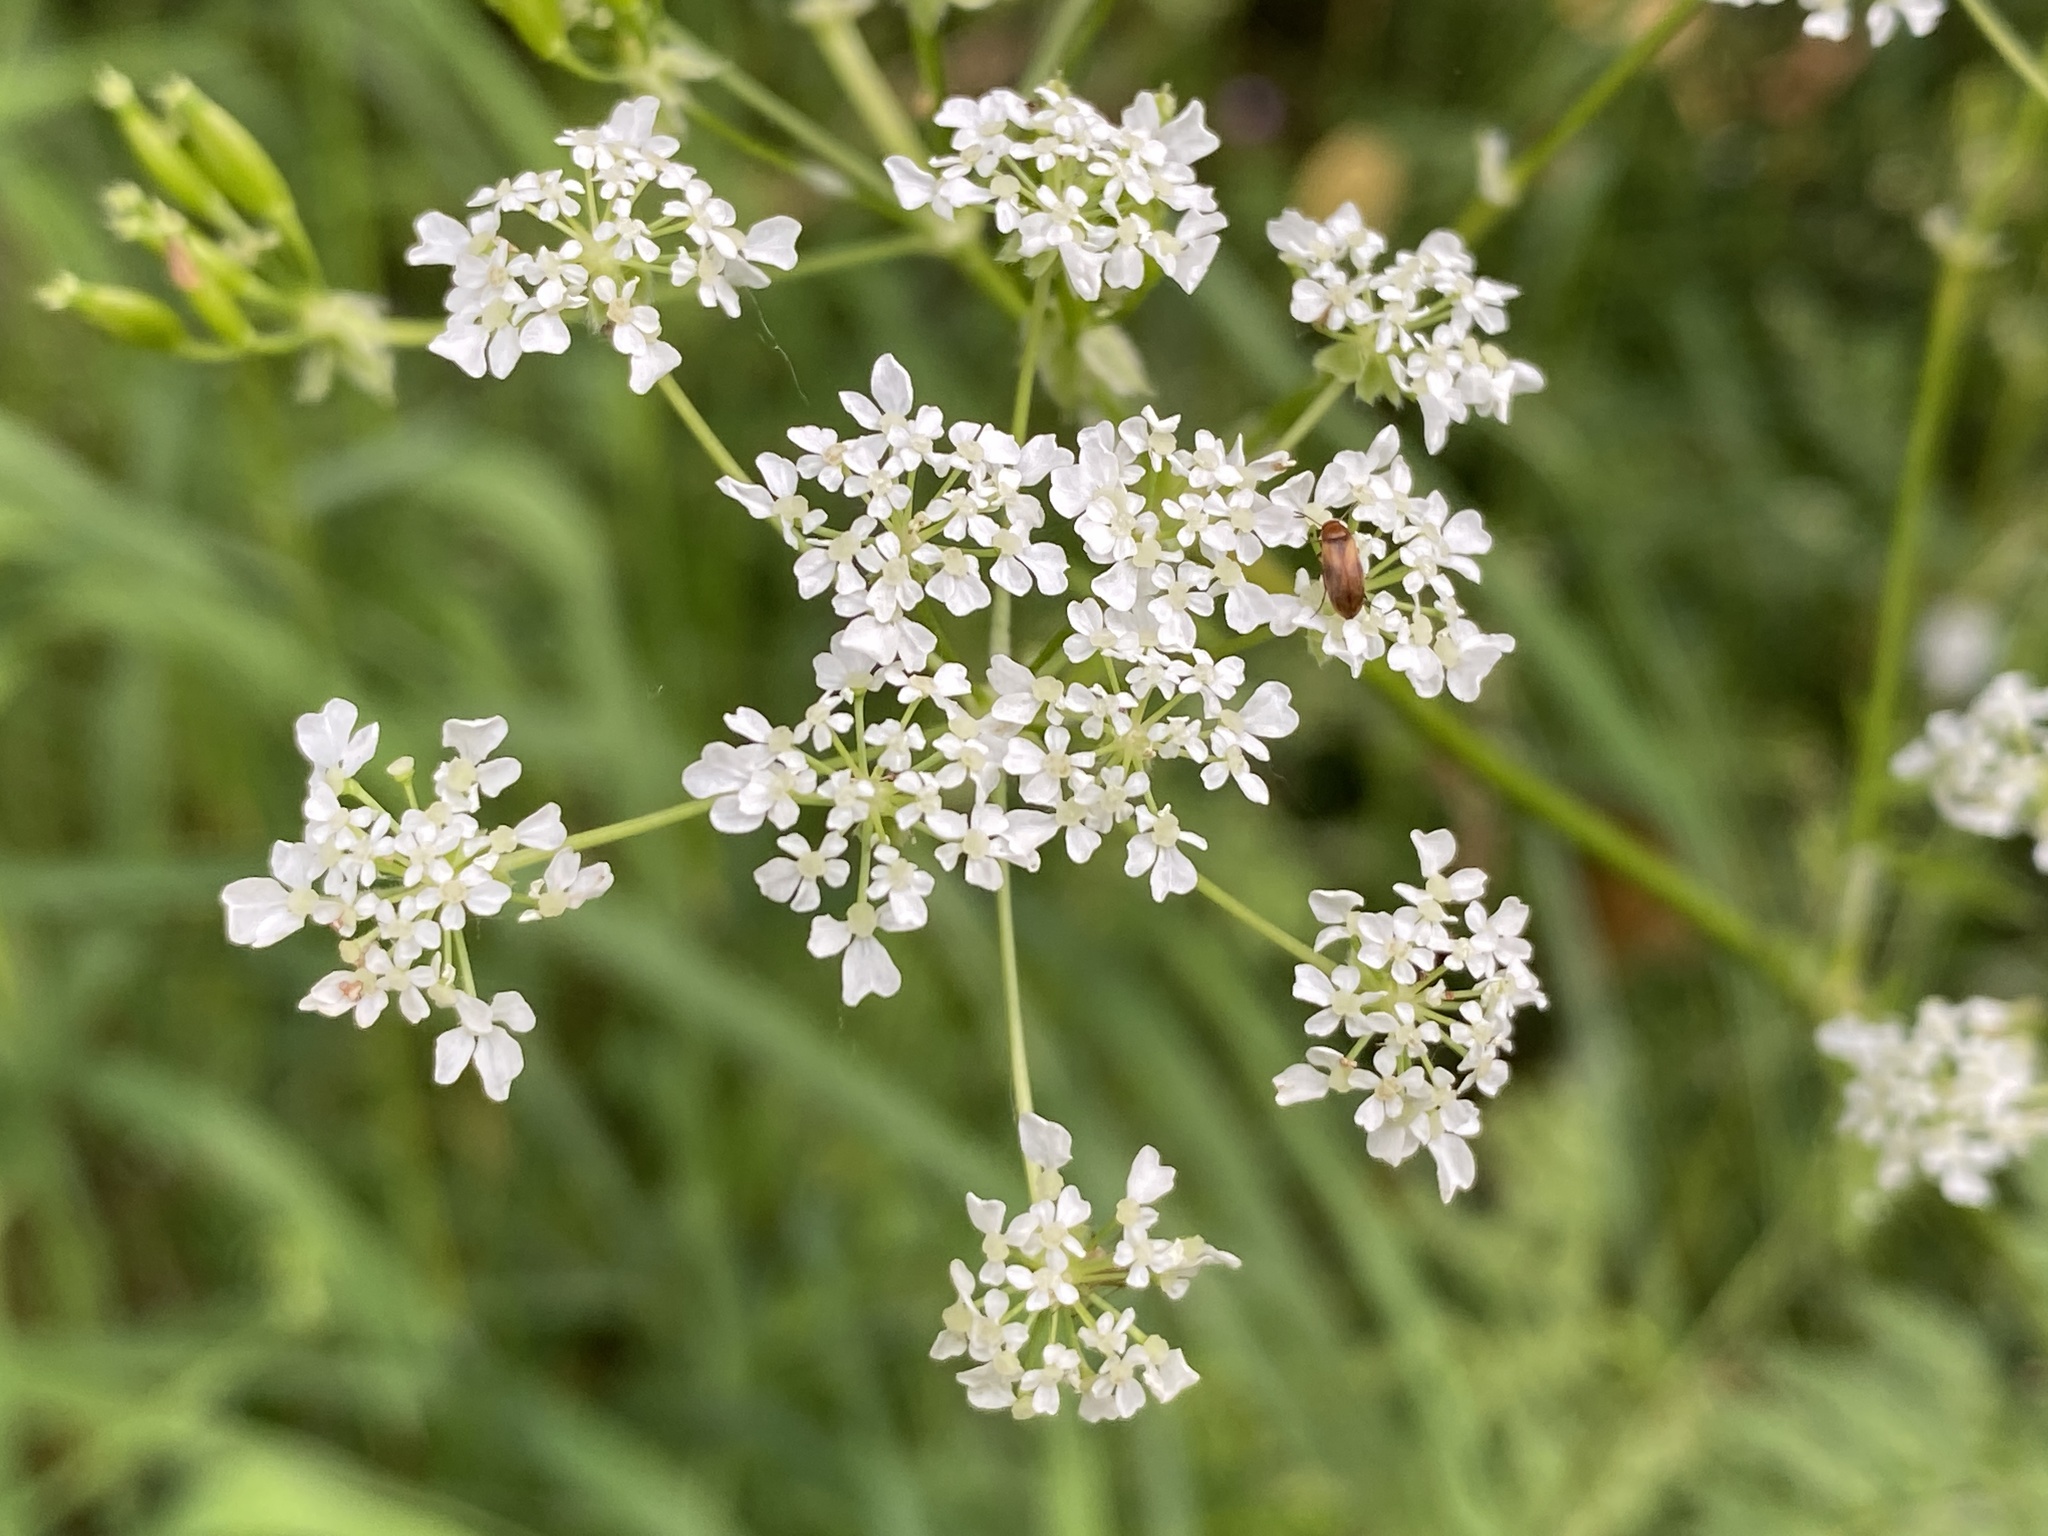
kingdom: Plantae
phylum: Tracheophyta
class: Magnoliopsida
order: Apiales
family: Apiaceae
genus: Anthriscus
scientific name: Anthriscus sylvestris
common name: Cow parsley
